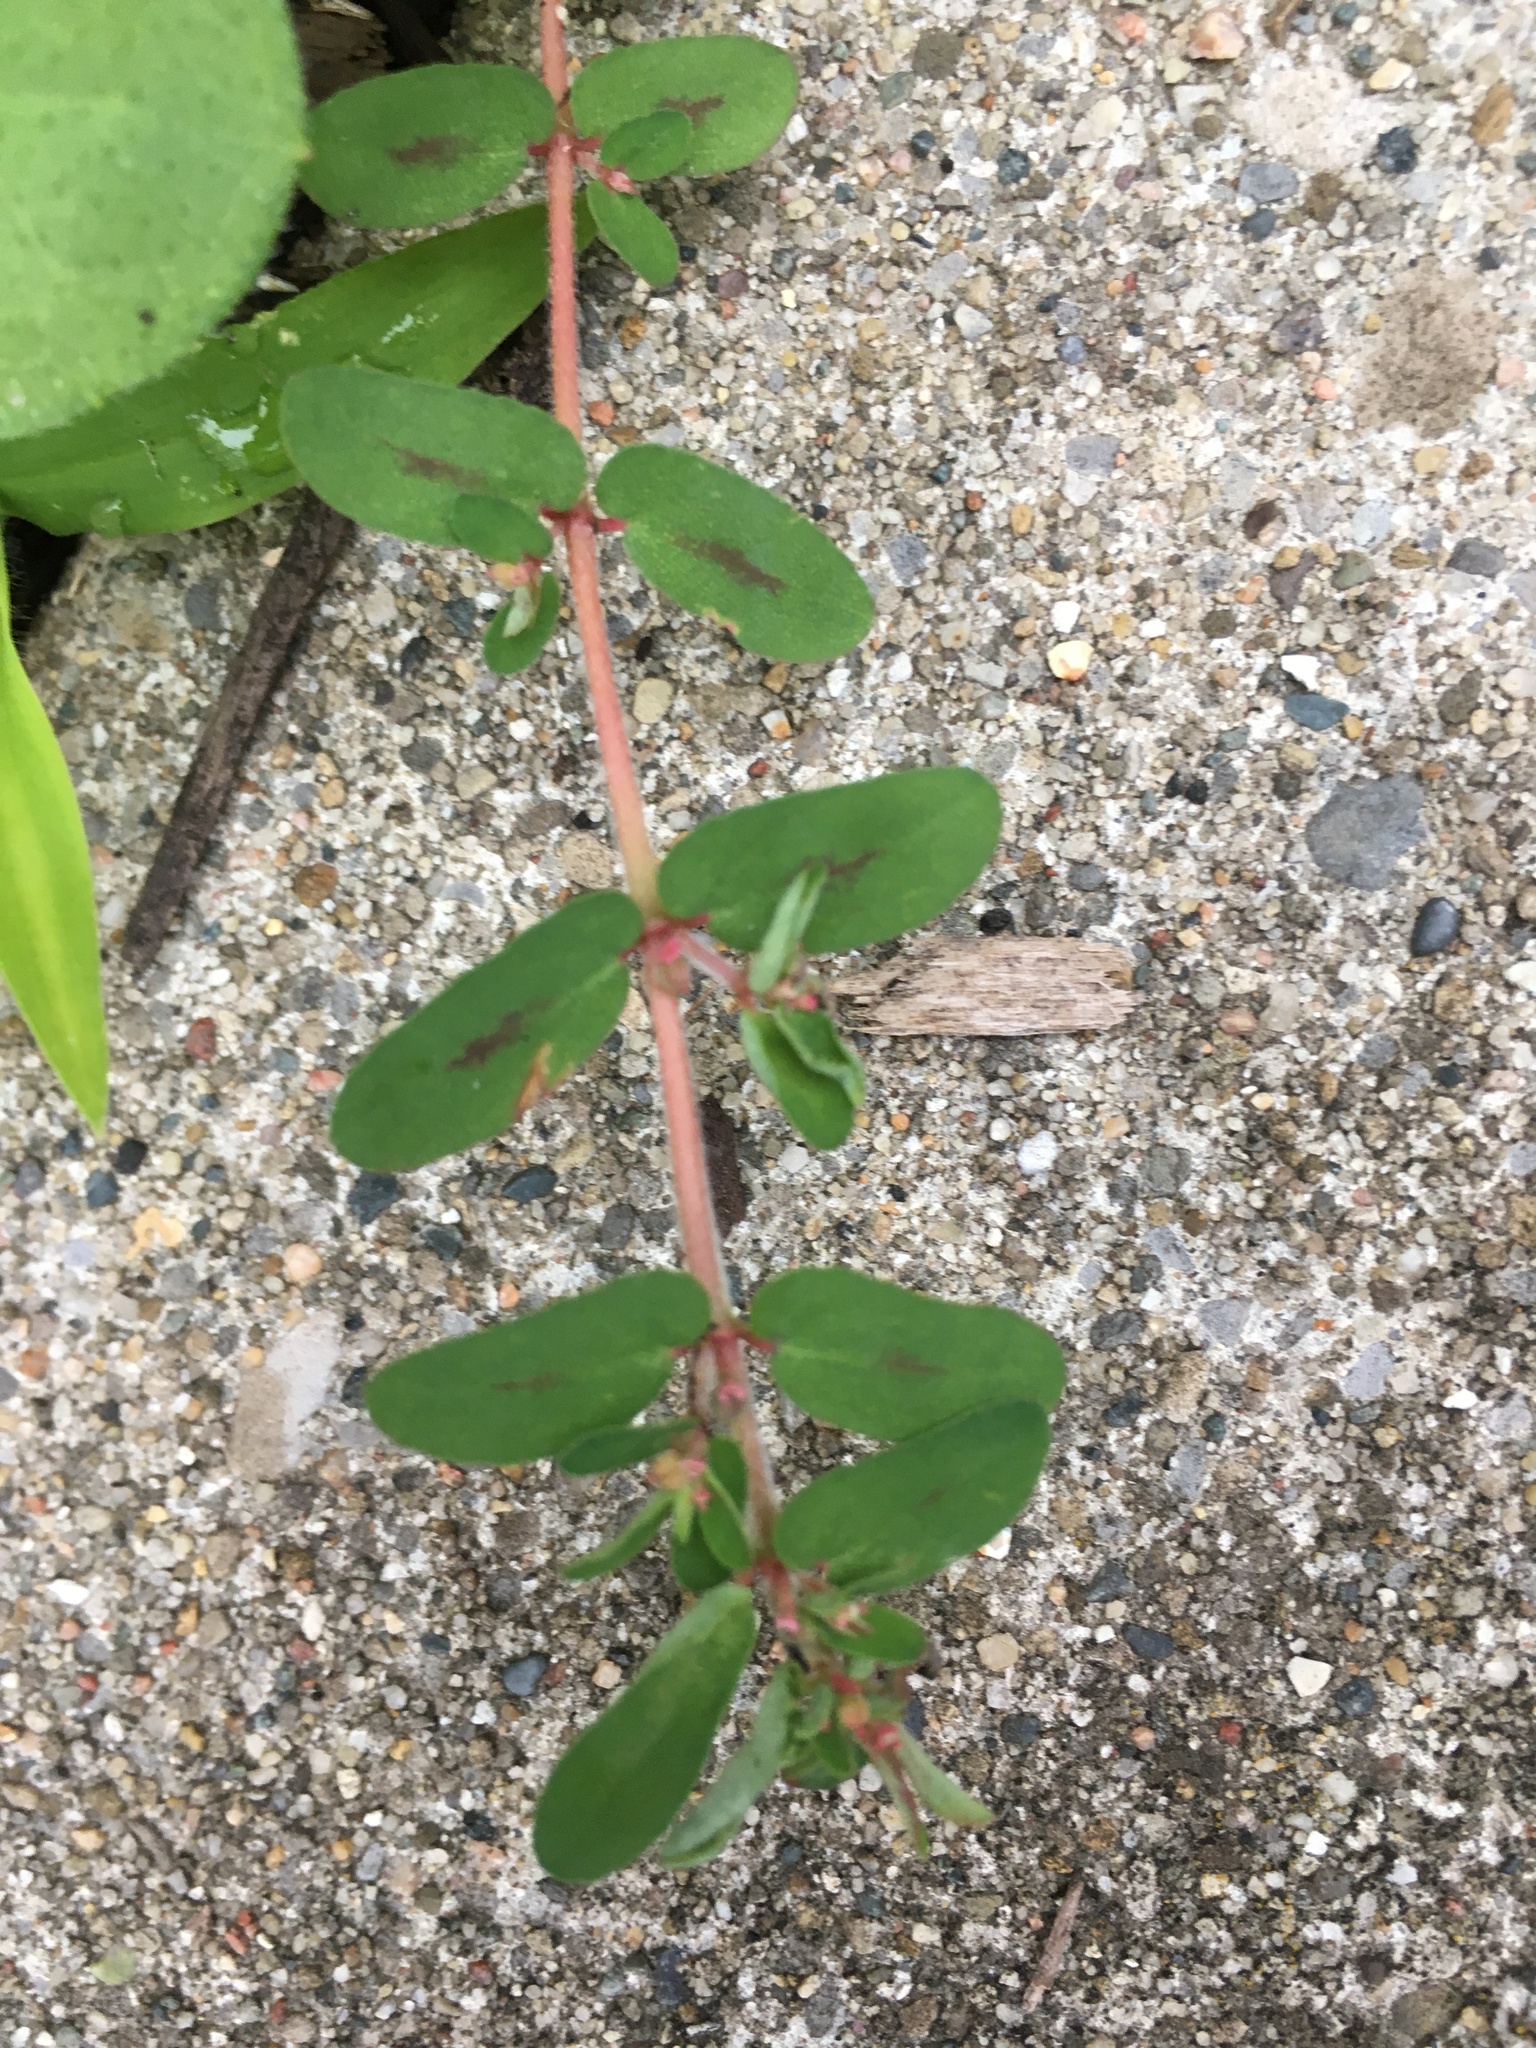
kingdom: Plantae
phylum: Tracheophyta
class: Magnoliopsida
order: Malpighiales
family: Euphorbiaceae
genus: Euphorbia
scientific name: Euphorbia maculata
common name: Spotted spurge
